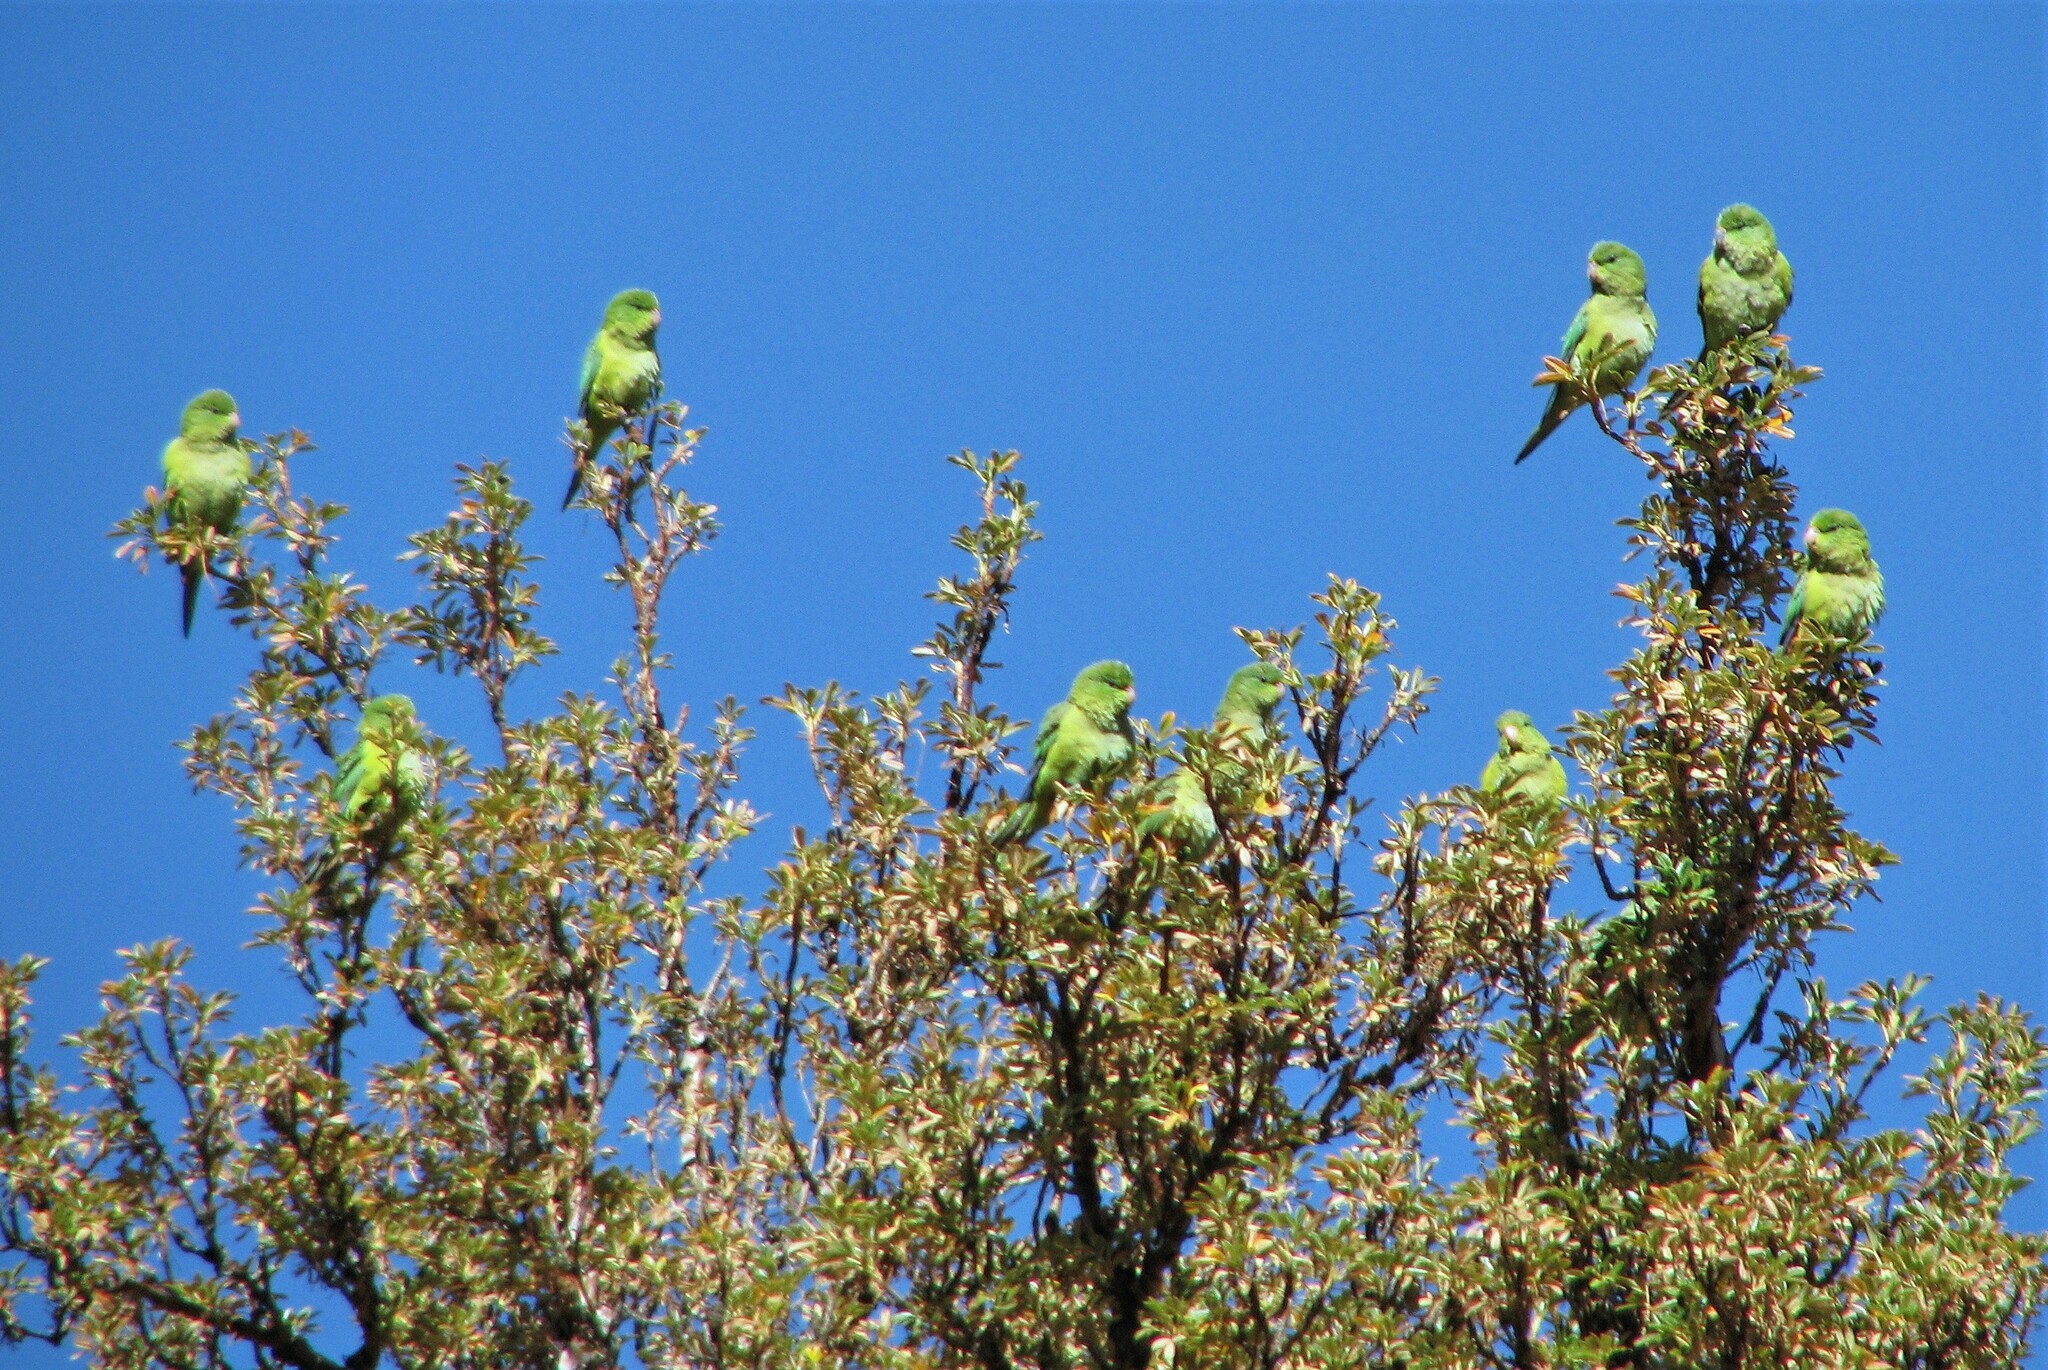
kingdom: Animalia
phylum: Chordata
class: Aves
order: Psittaciformes
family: Psittacidae
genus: Psilopsiagon
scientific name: Psilopsiagon aurifrons
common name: Mountain parakeet
